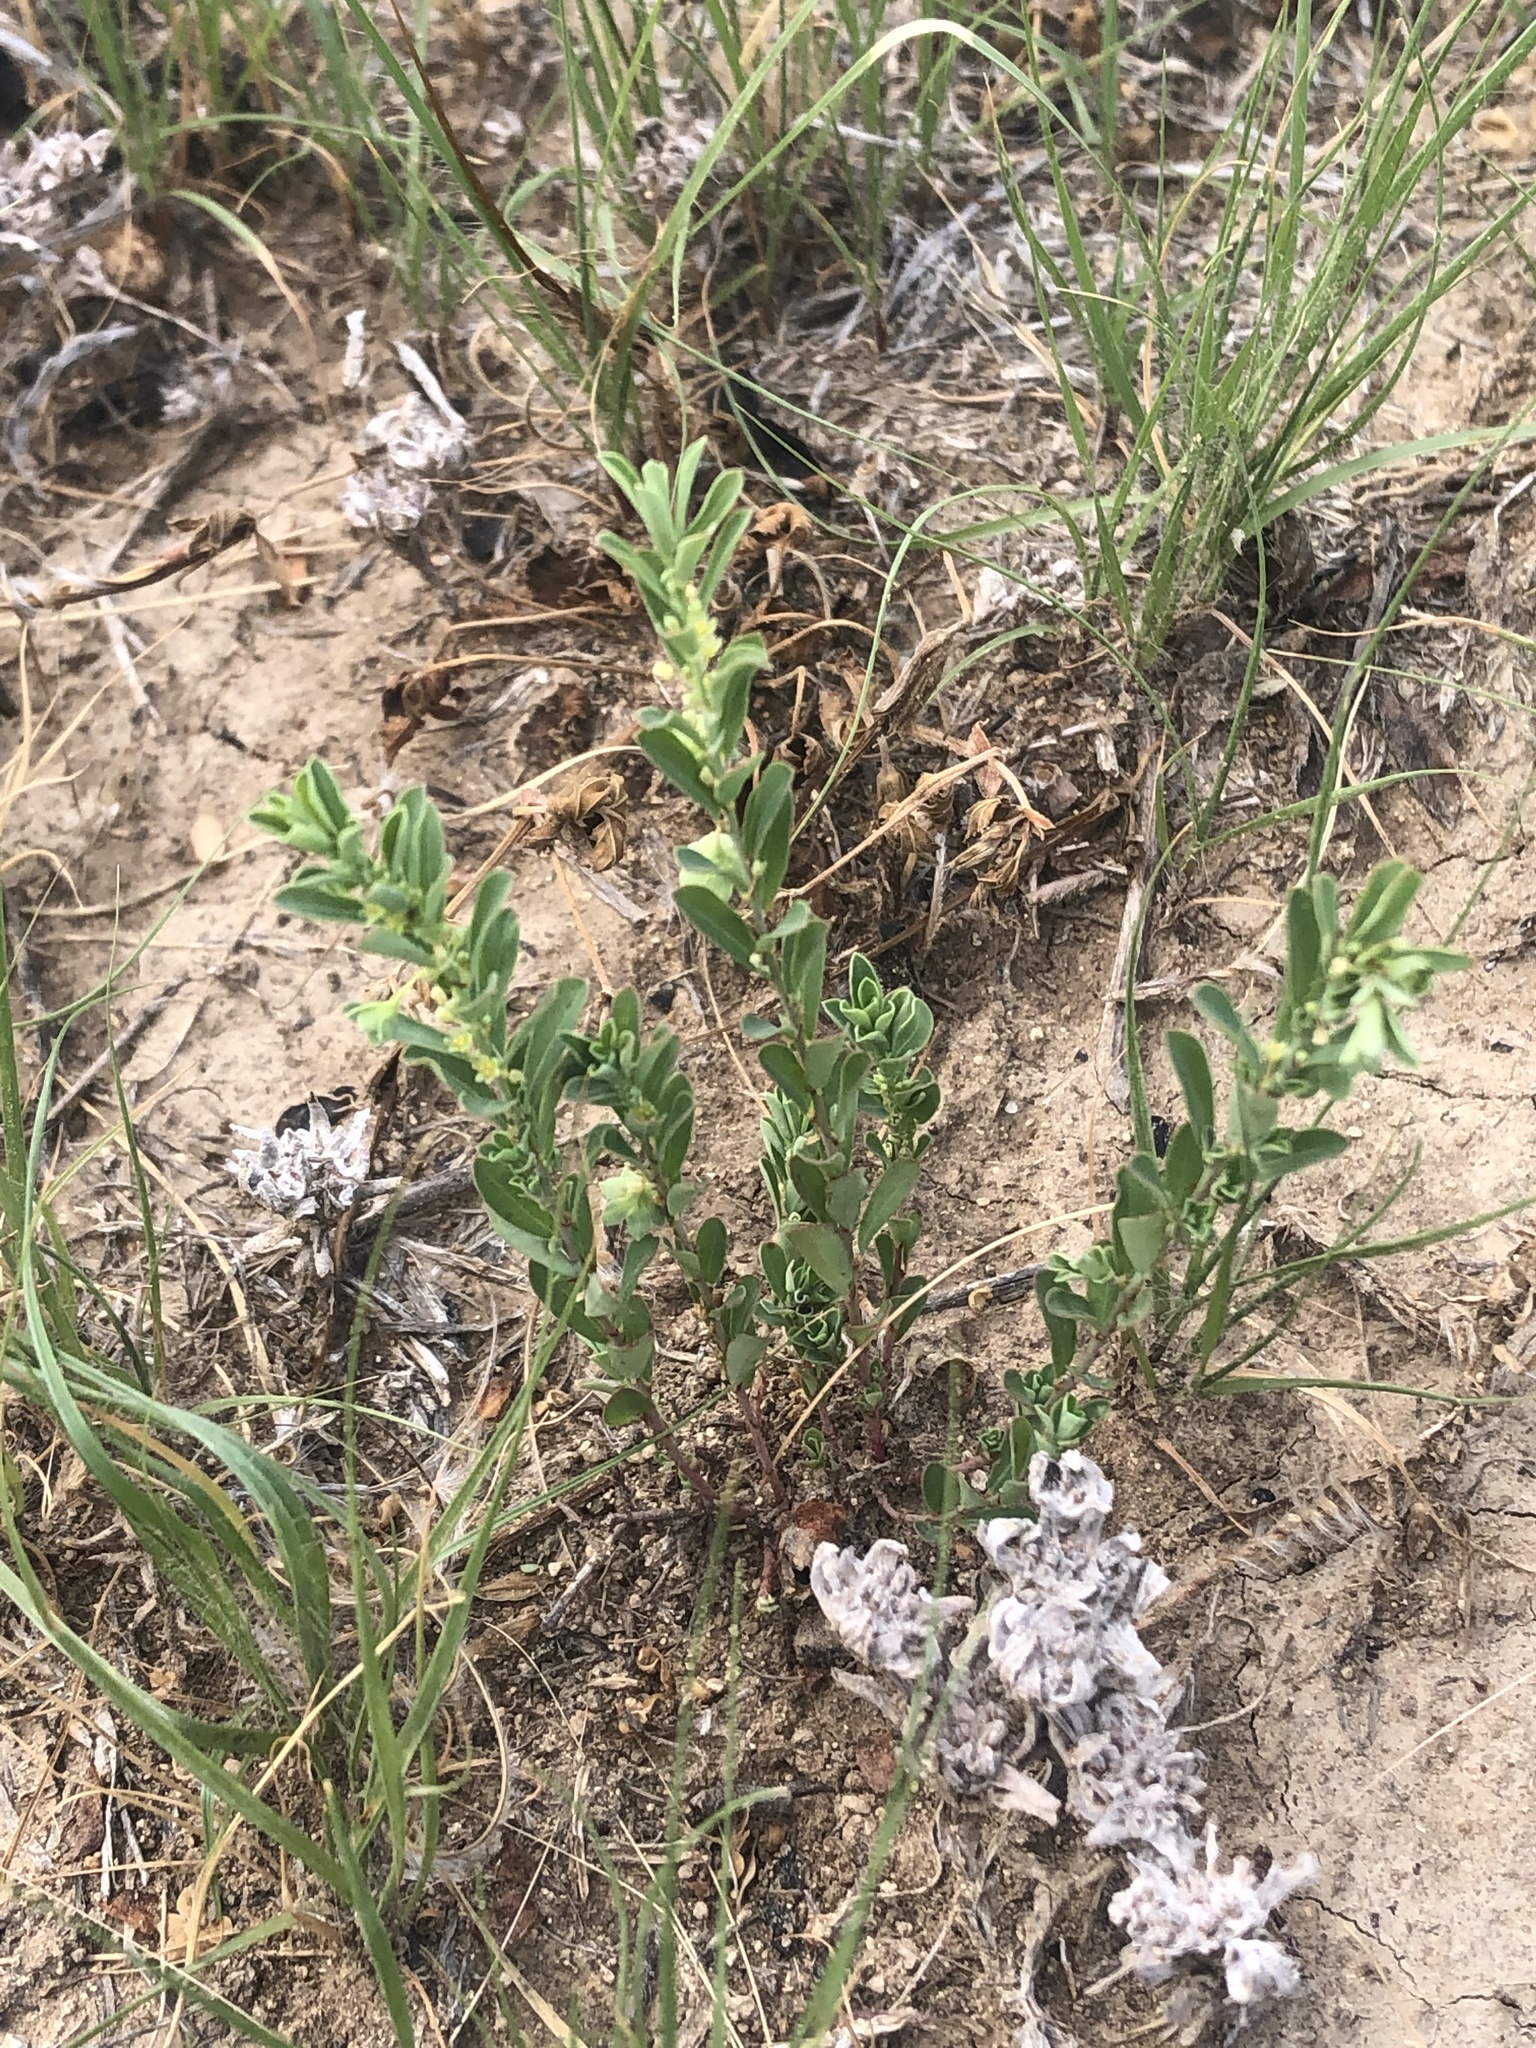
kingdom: Plantae
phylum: Tracheophyta
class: Magnoliopsida
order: Malpighiales
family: Phyllanthaceae
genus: Phyllanthus
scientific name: Phyllanthus polygonoides
